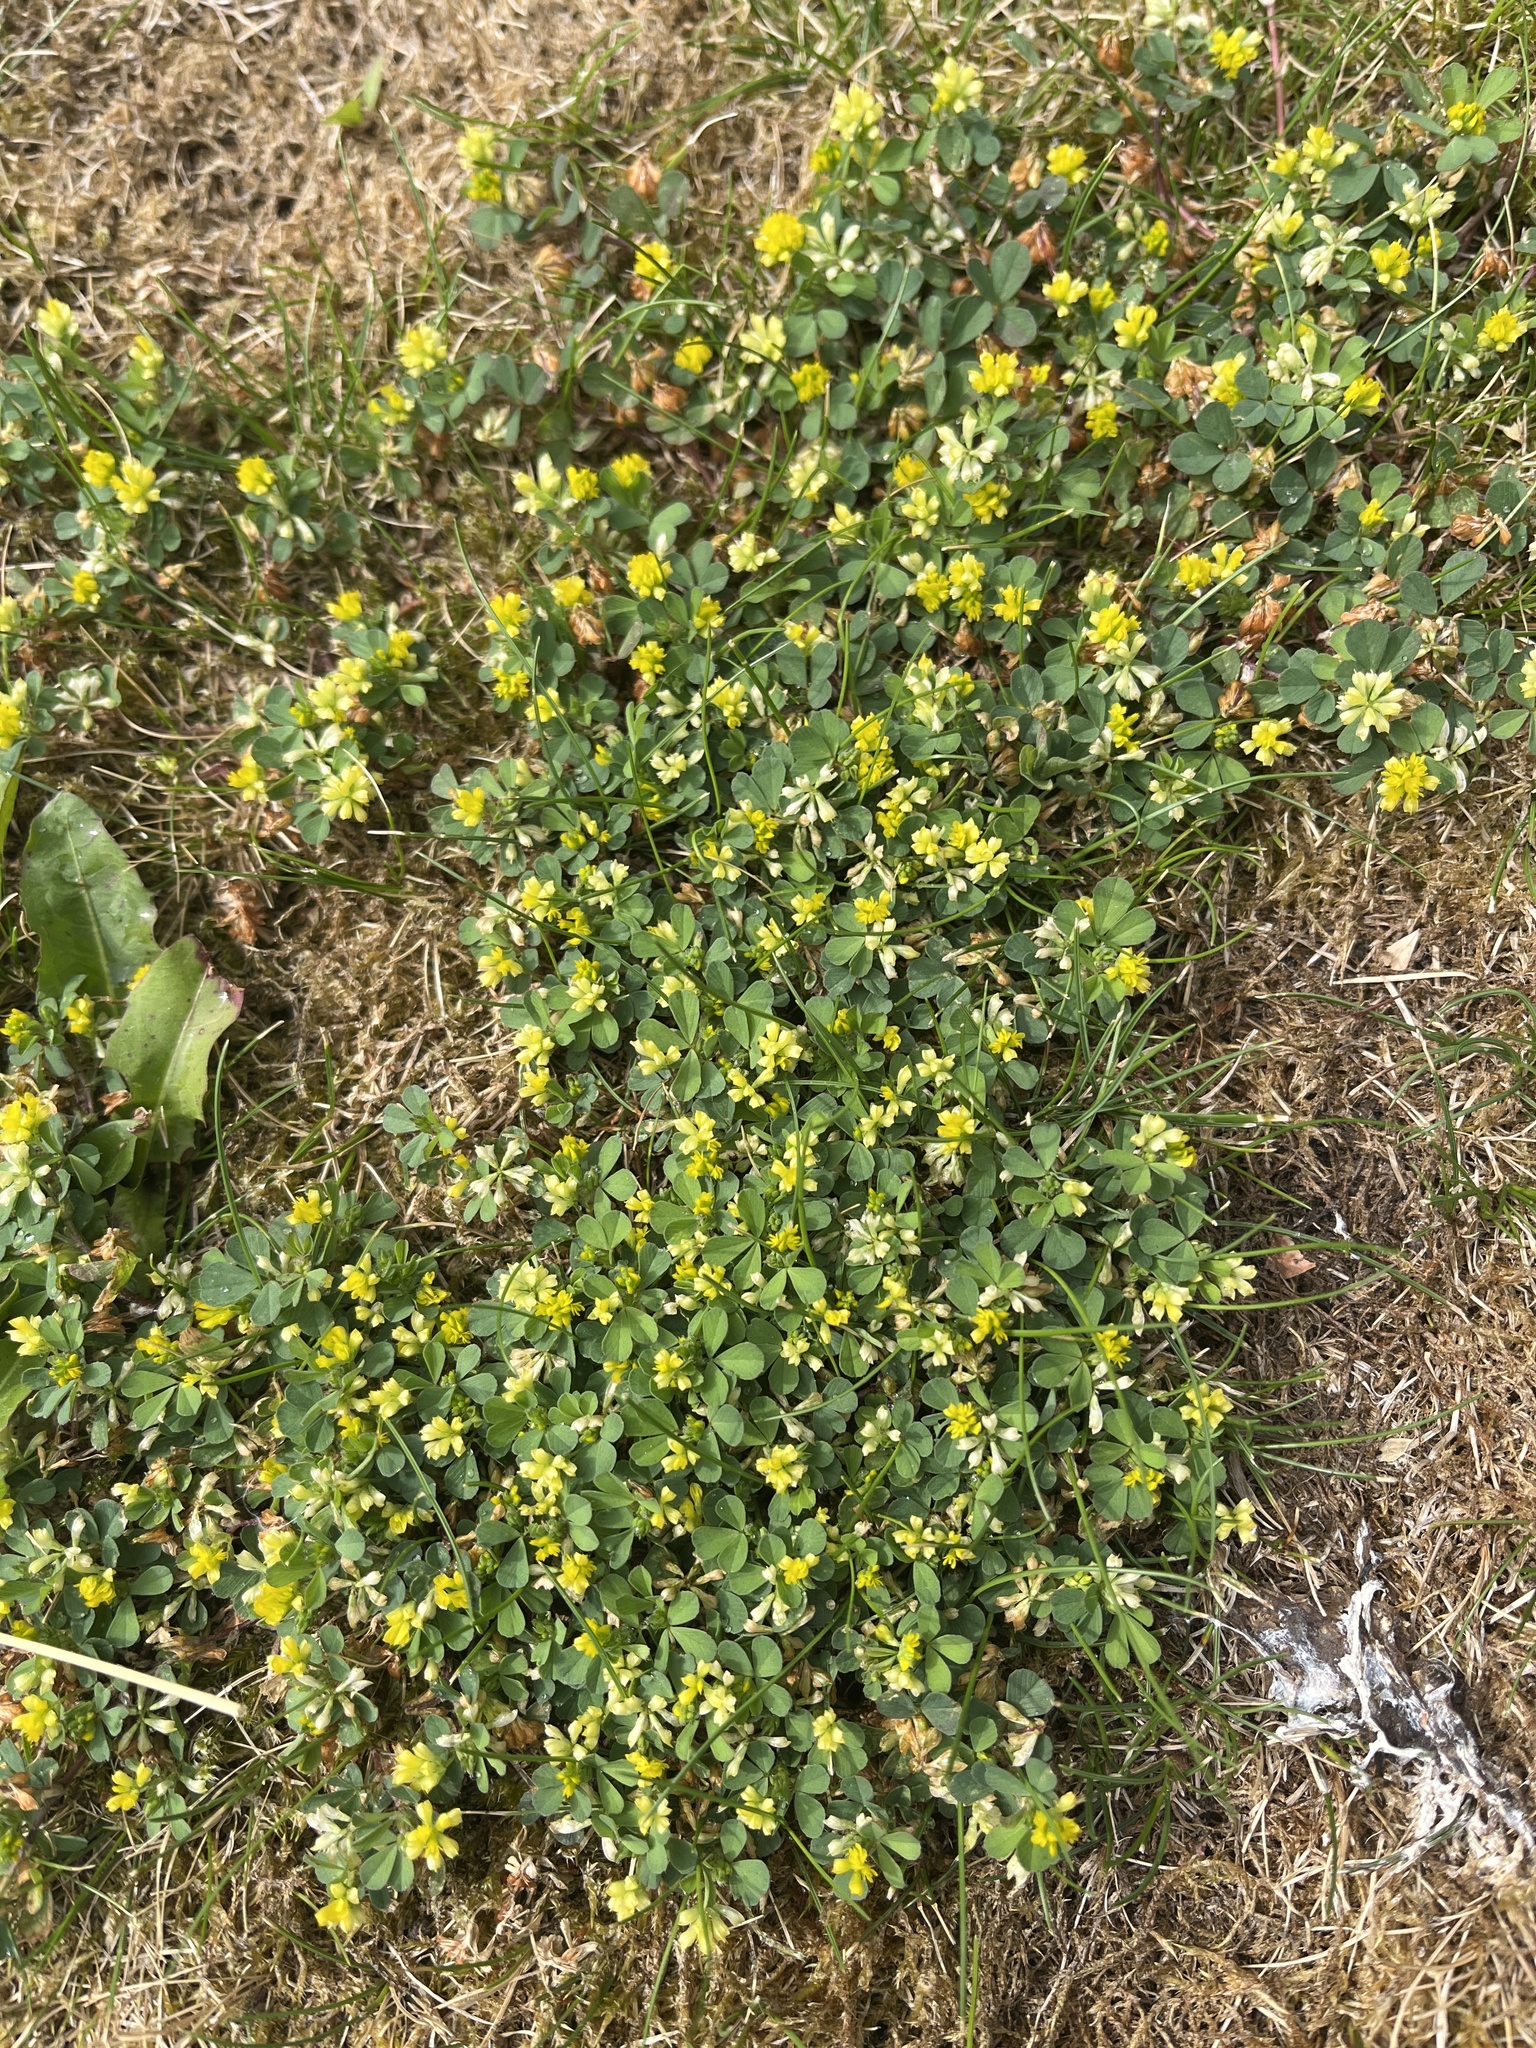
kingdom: Plantae
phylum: Tracheophyta
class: Magnoliopsida
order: Fabales
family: Fabaceae
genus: Trifolium
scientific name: Trifolium dubium
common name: Suckling clover
